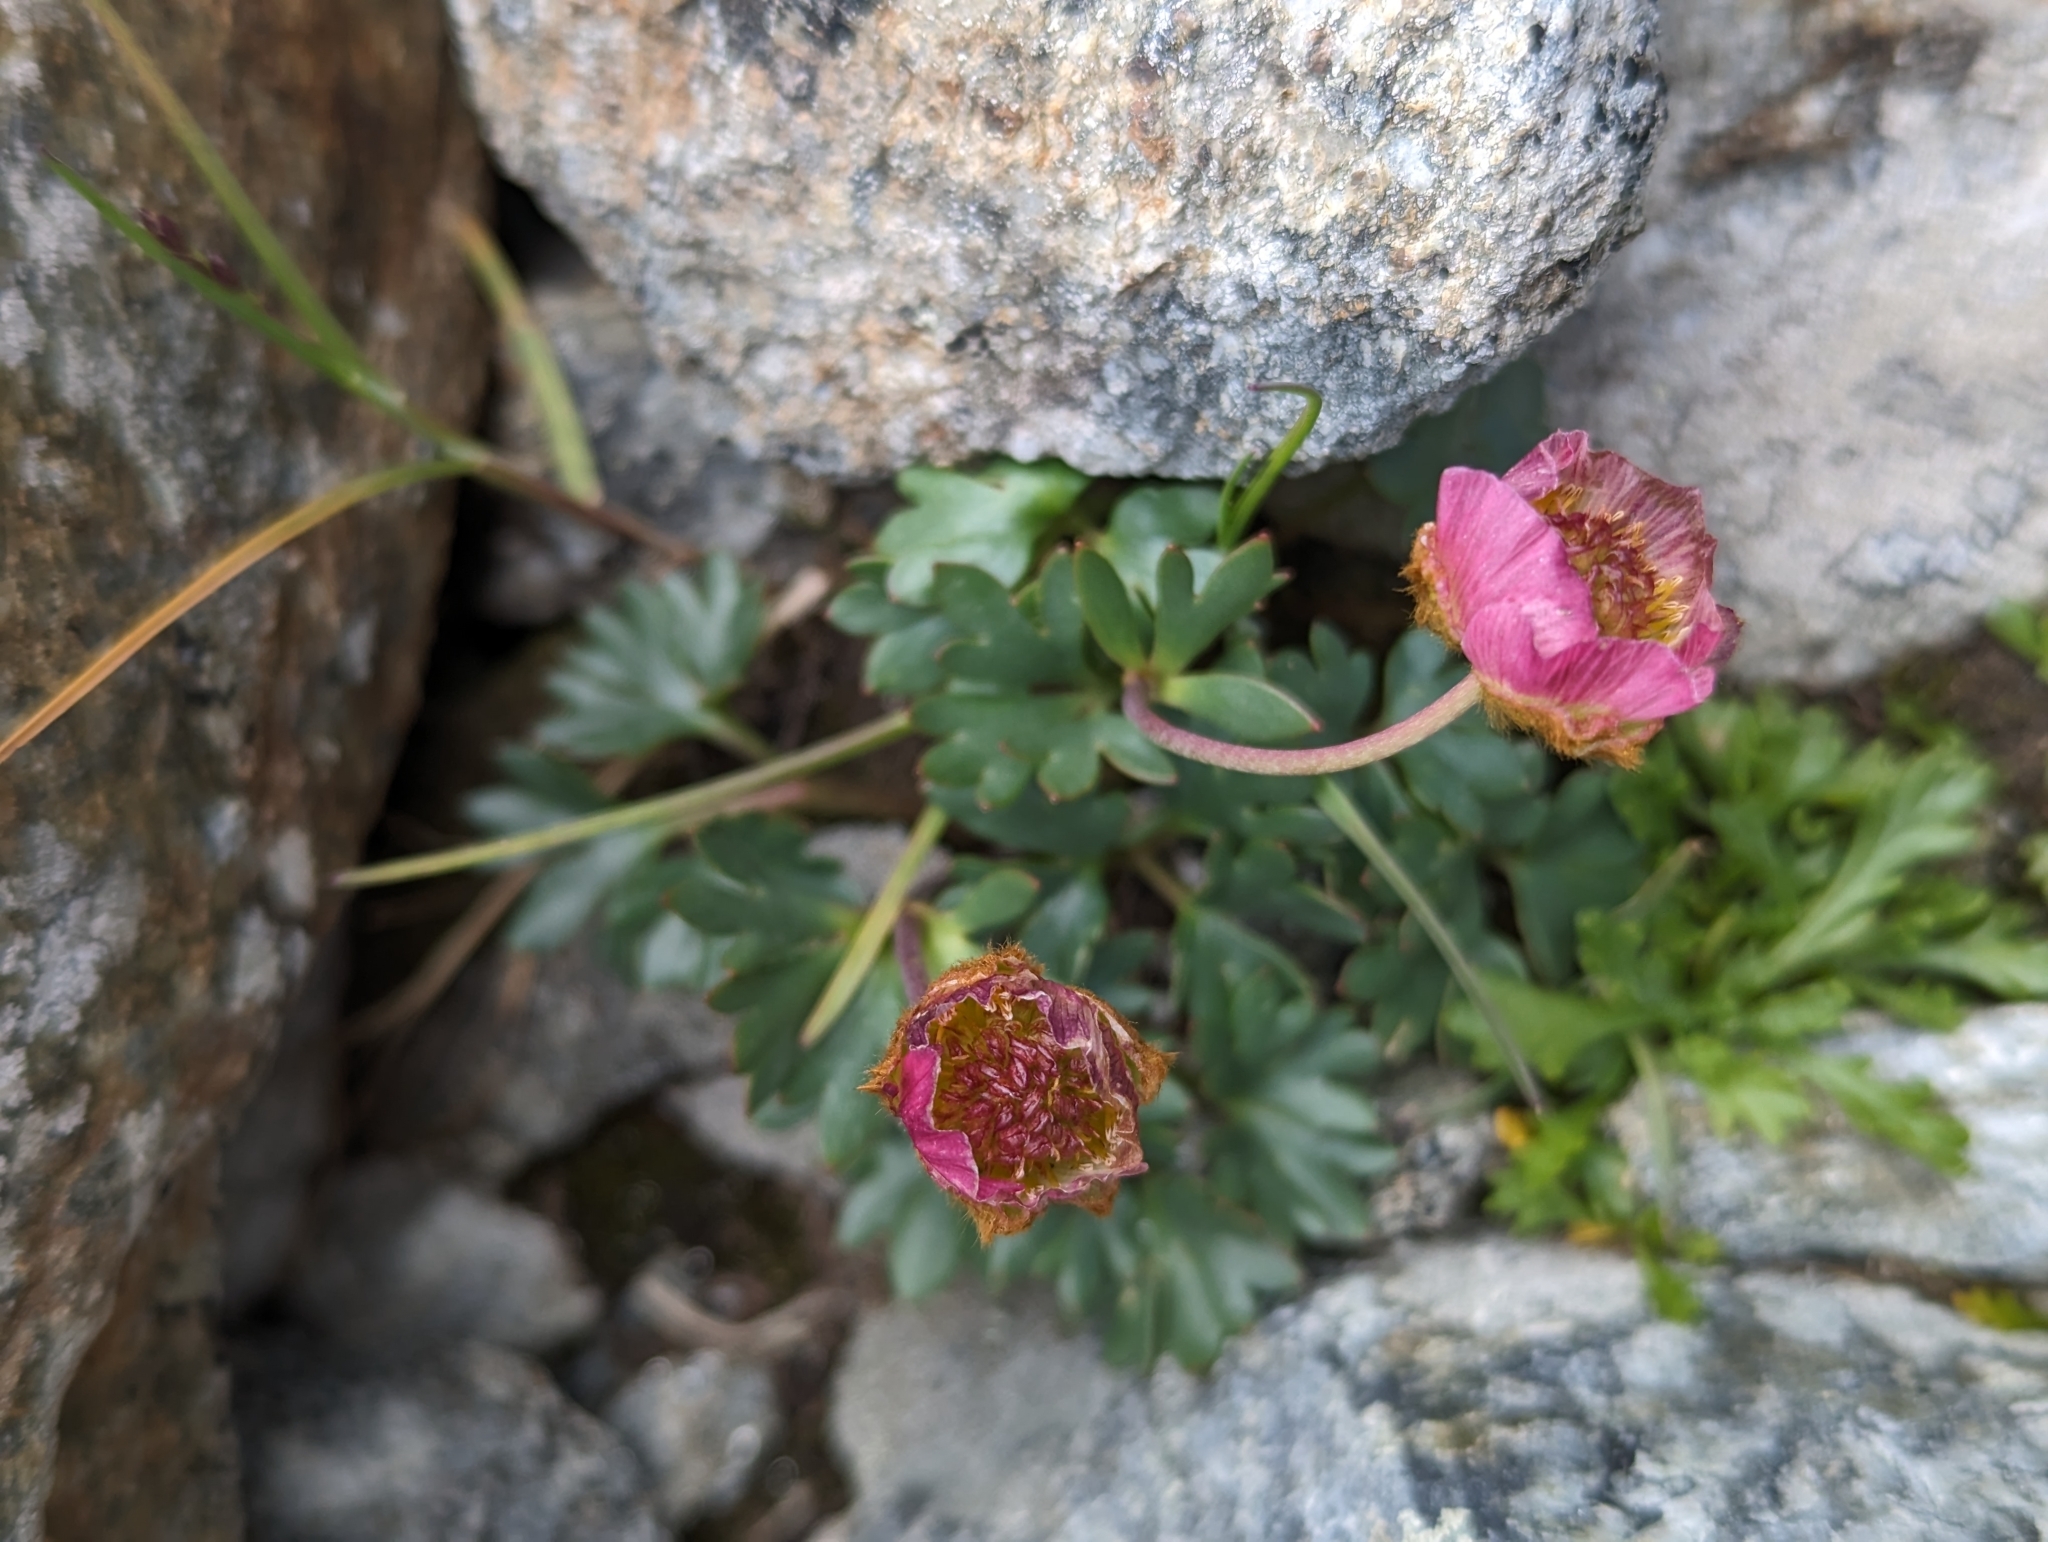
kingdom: Plantae
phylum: Tracheophyta
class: Magnoliopsida
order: Ranunculales
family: Ranunculaceae
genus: Ranunculus
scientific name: Ranunculus glacialis
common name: Glacier buttercup
